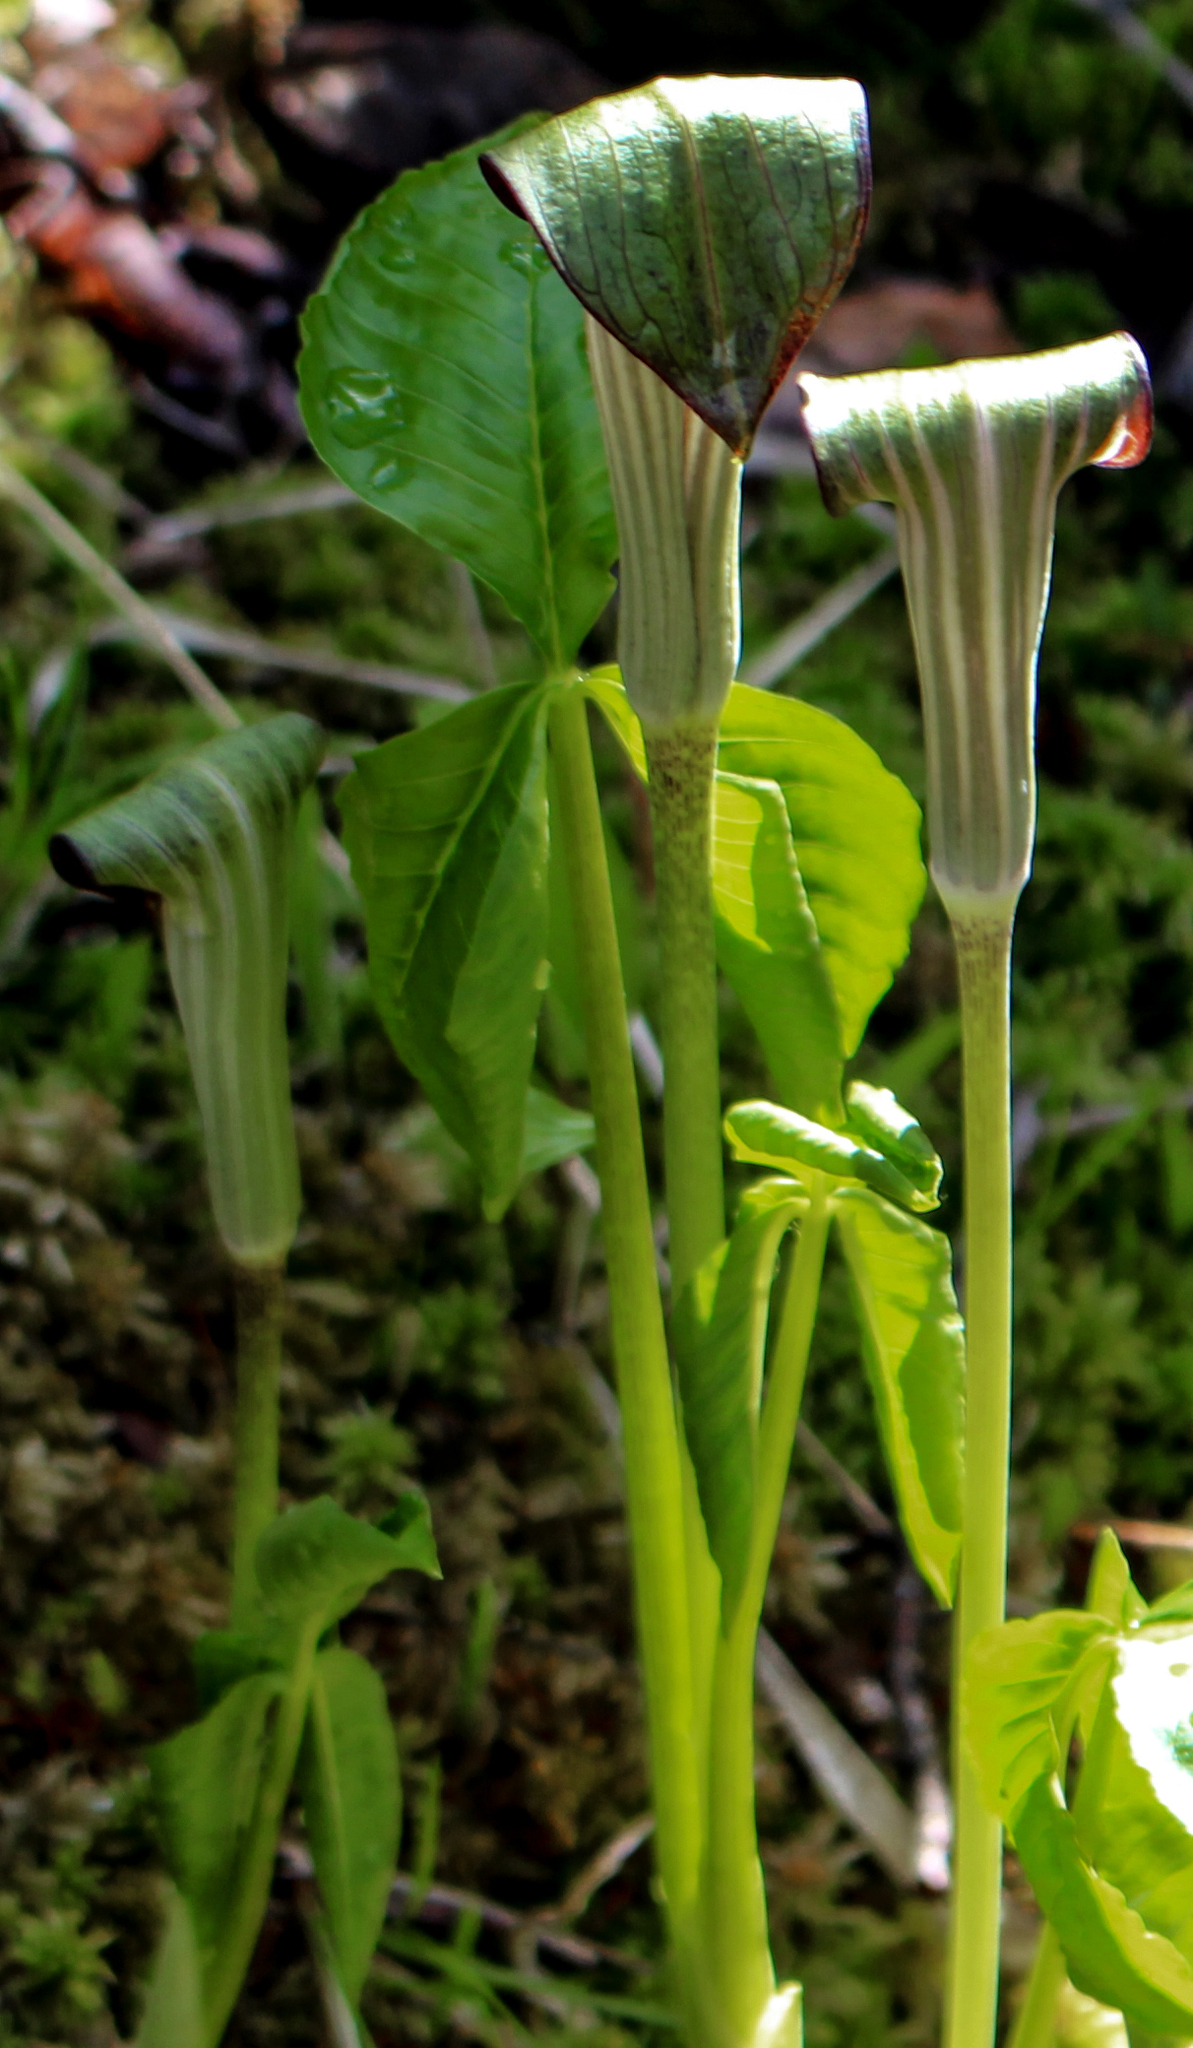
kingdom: Plantae
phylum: Tracheophyta
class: Liliopsida
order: Alismatales
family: Araceae
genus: Arisaema
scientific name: Arisaema triphyllum
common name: Jack-in-the-pulpit
